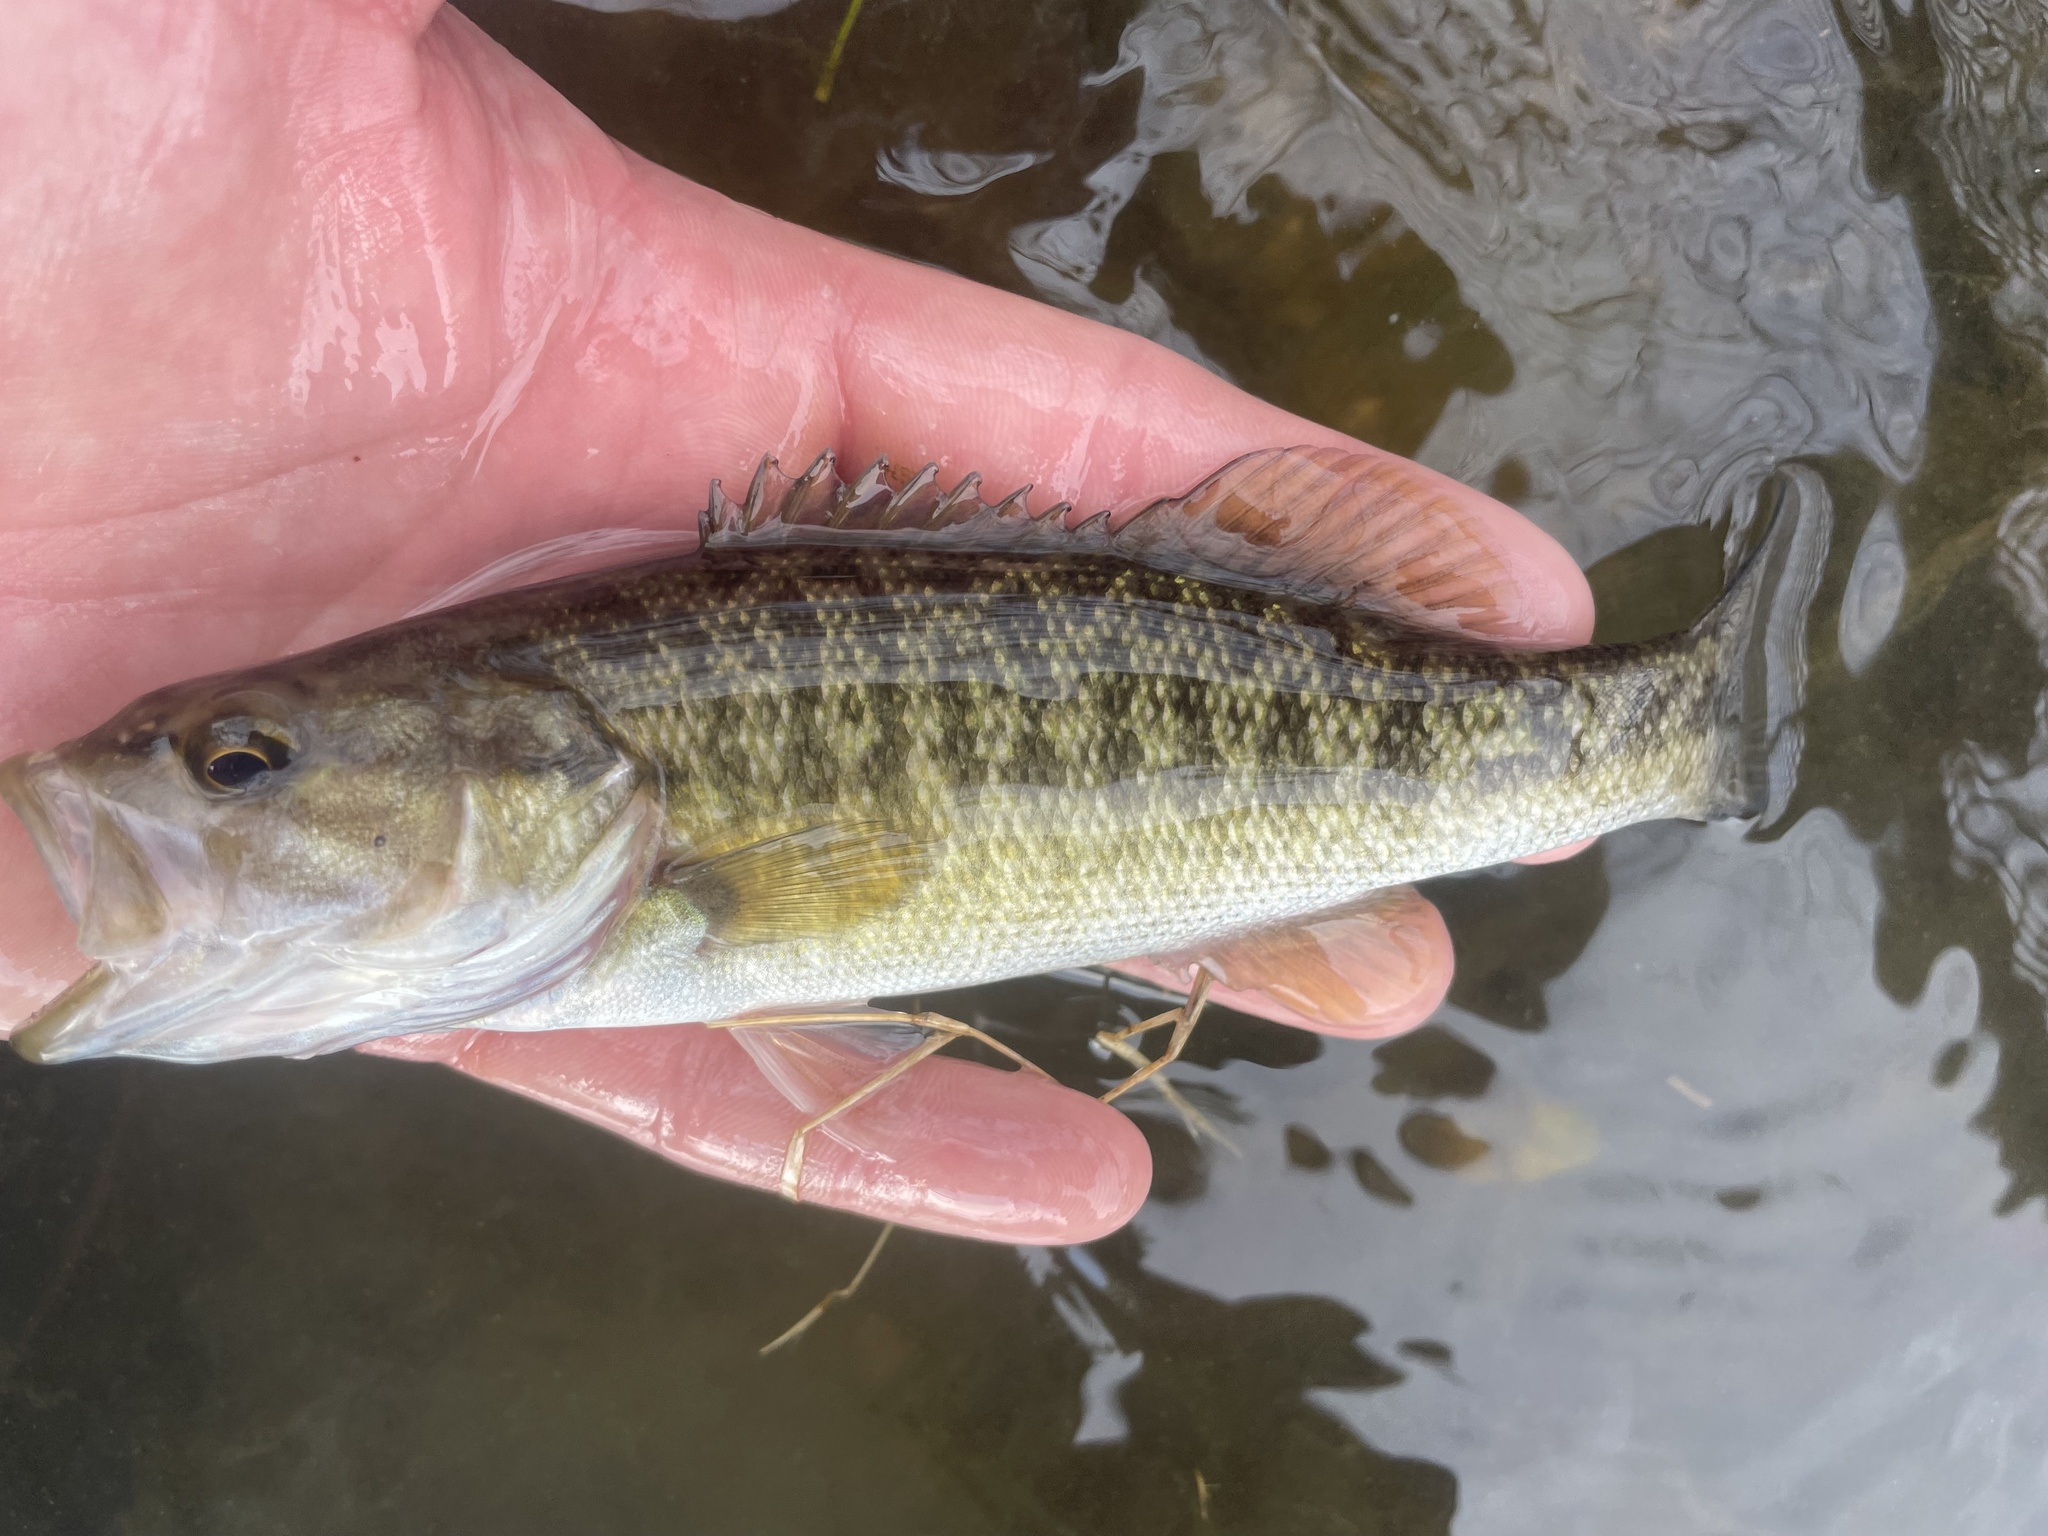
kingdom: Animalia
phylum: Chordata
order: Perciformes
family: Centrarchidae
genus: Micropterus
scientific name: Micropterus treculii
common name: Guadalupe bass
